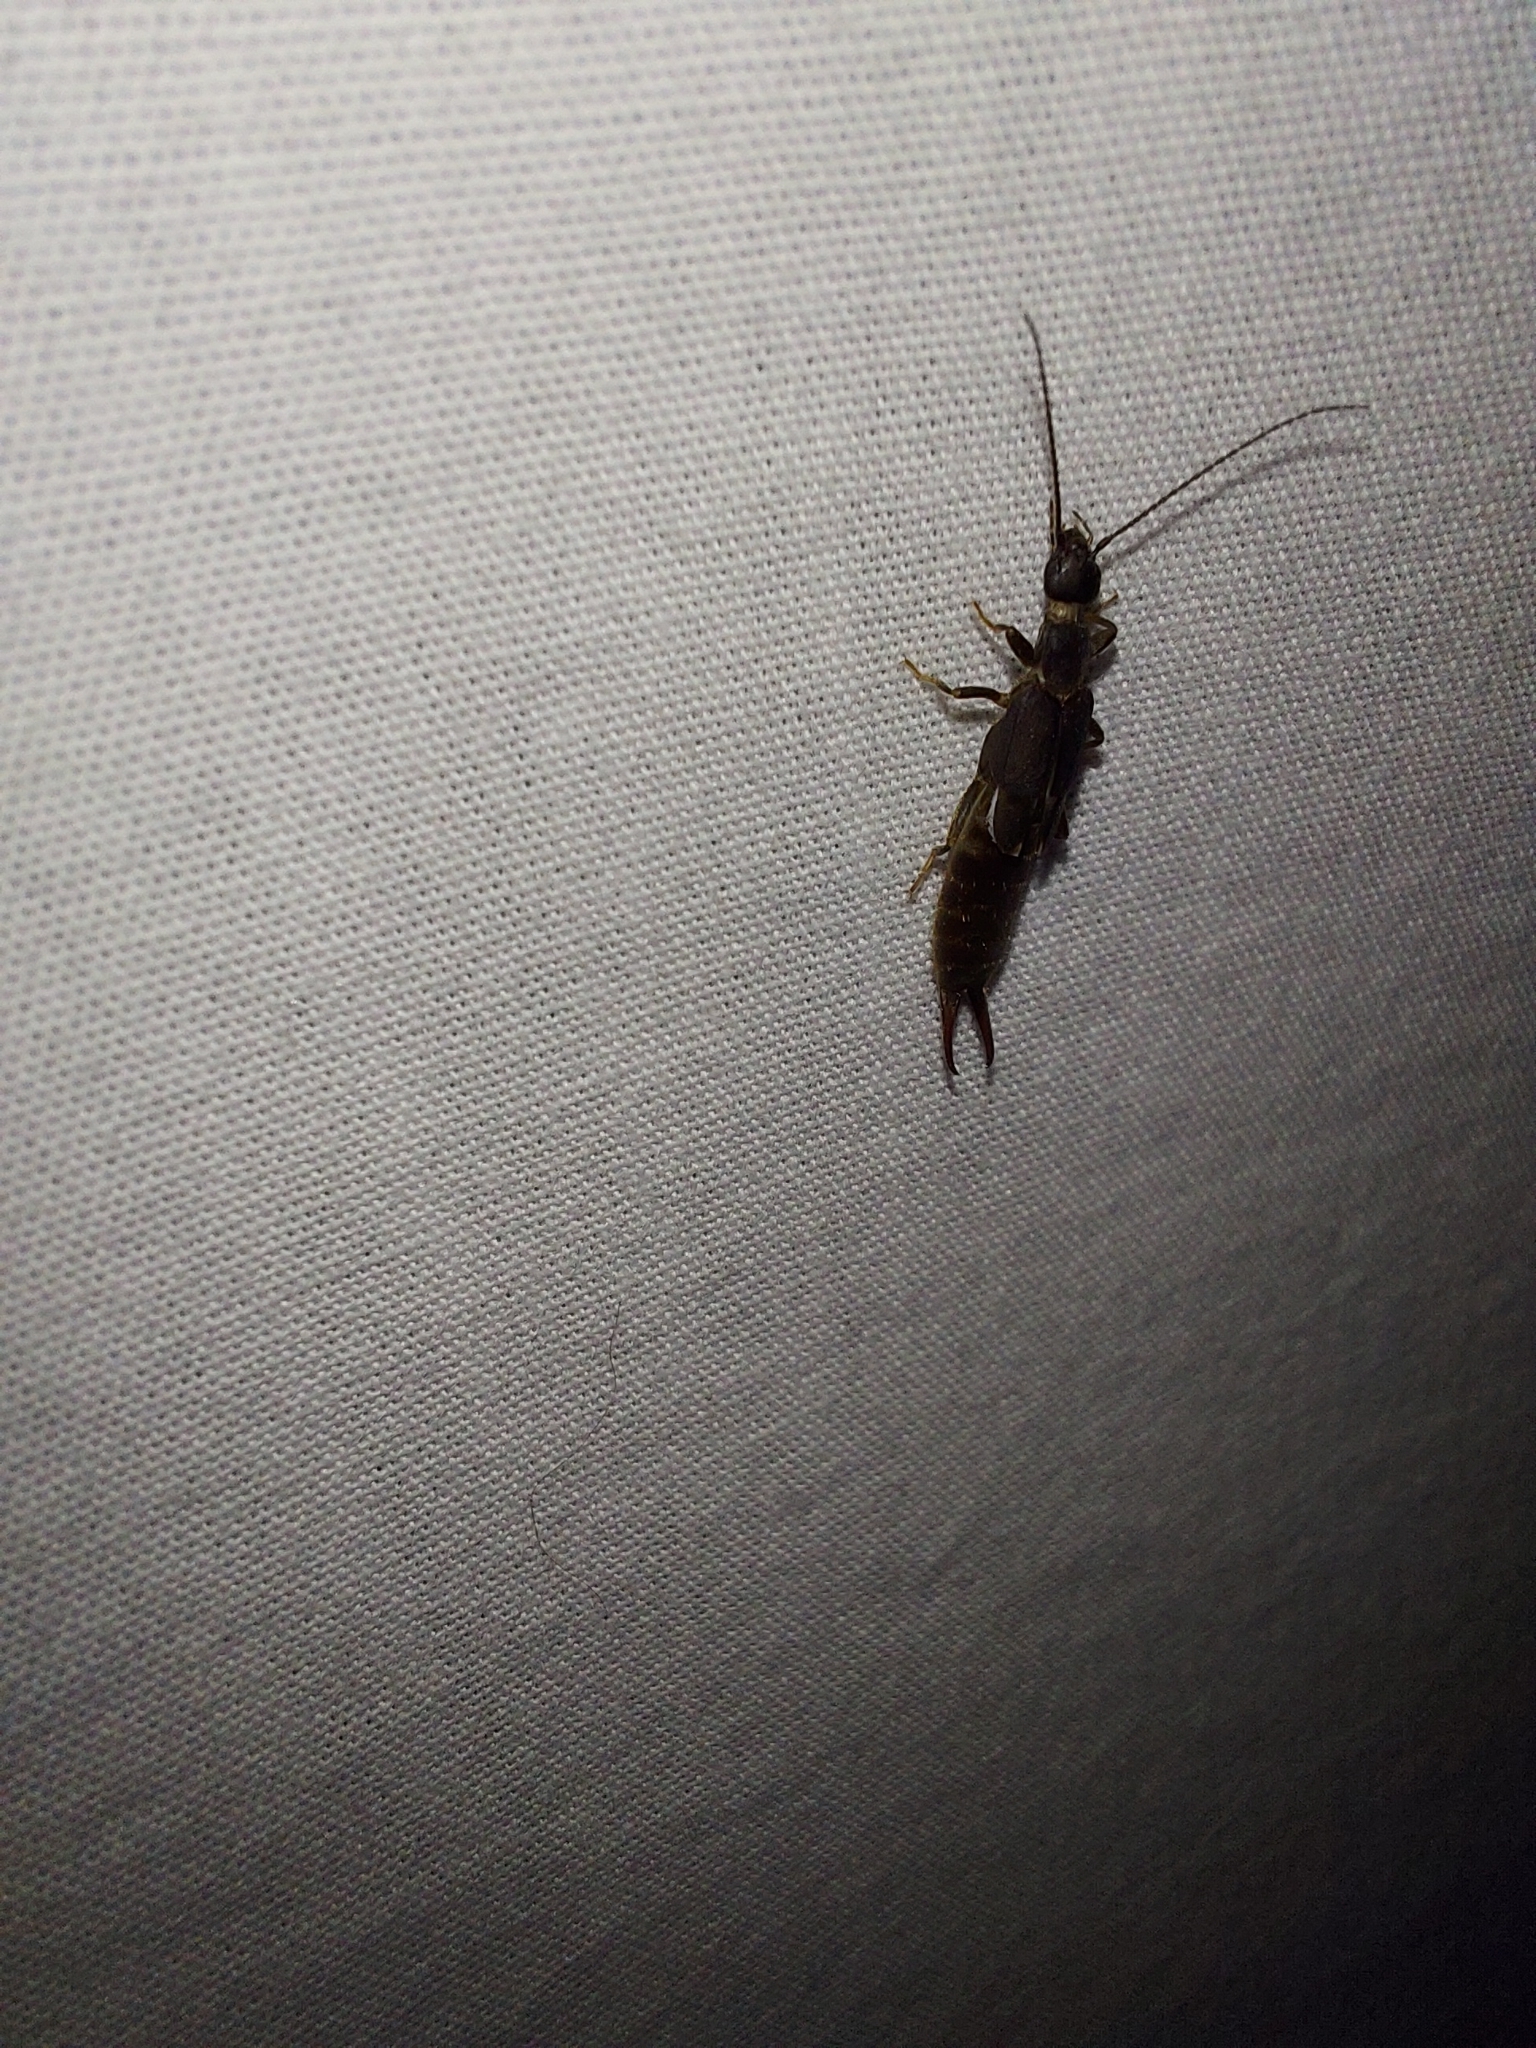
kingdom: Animalia
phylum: Arthropoda
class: Insecta
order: Dermaptera
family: Labiduridae
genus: Nala
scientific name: Nala lividipes
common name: Earwig
